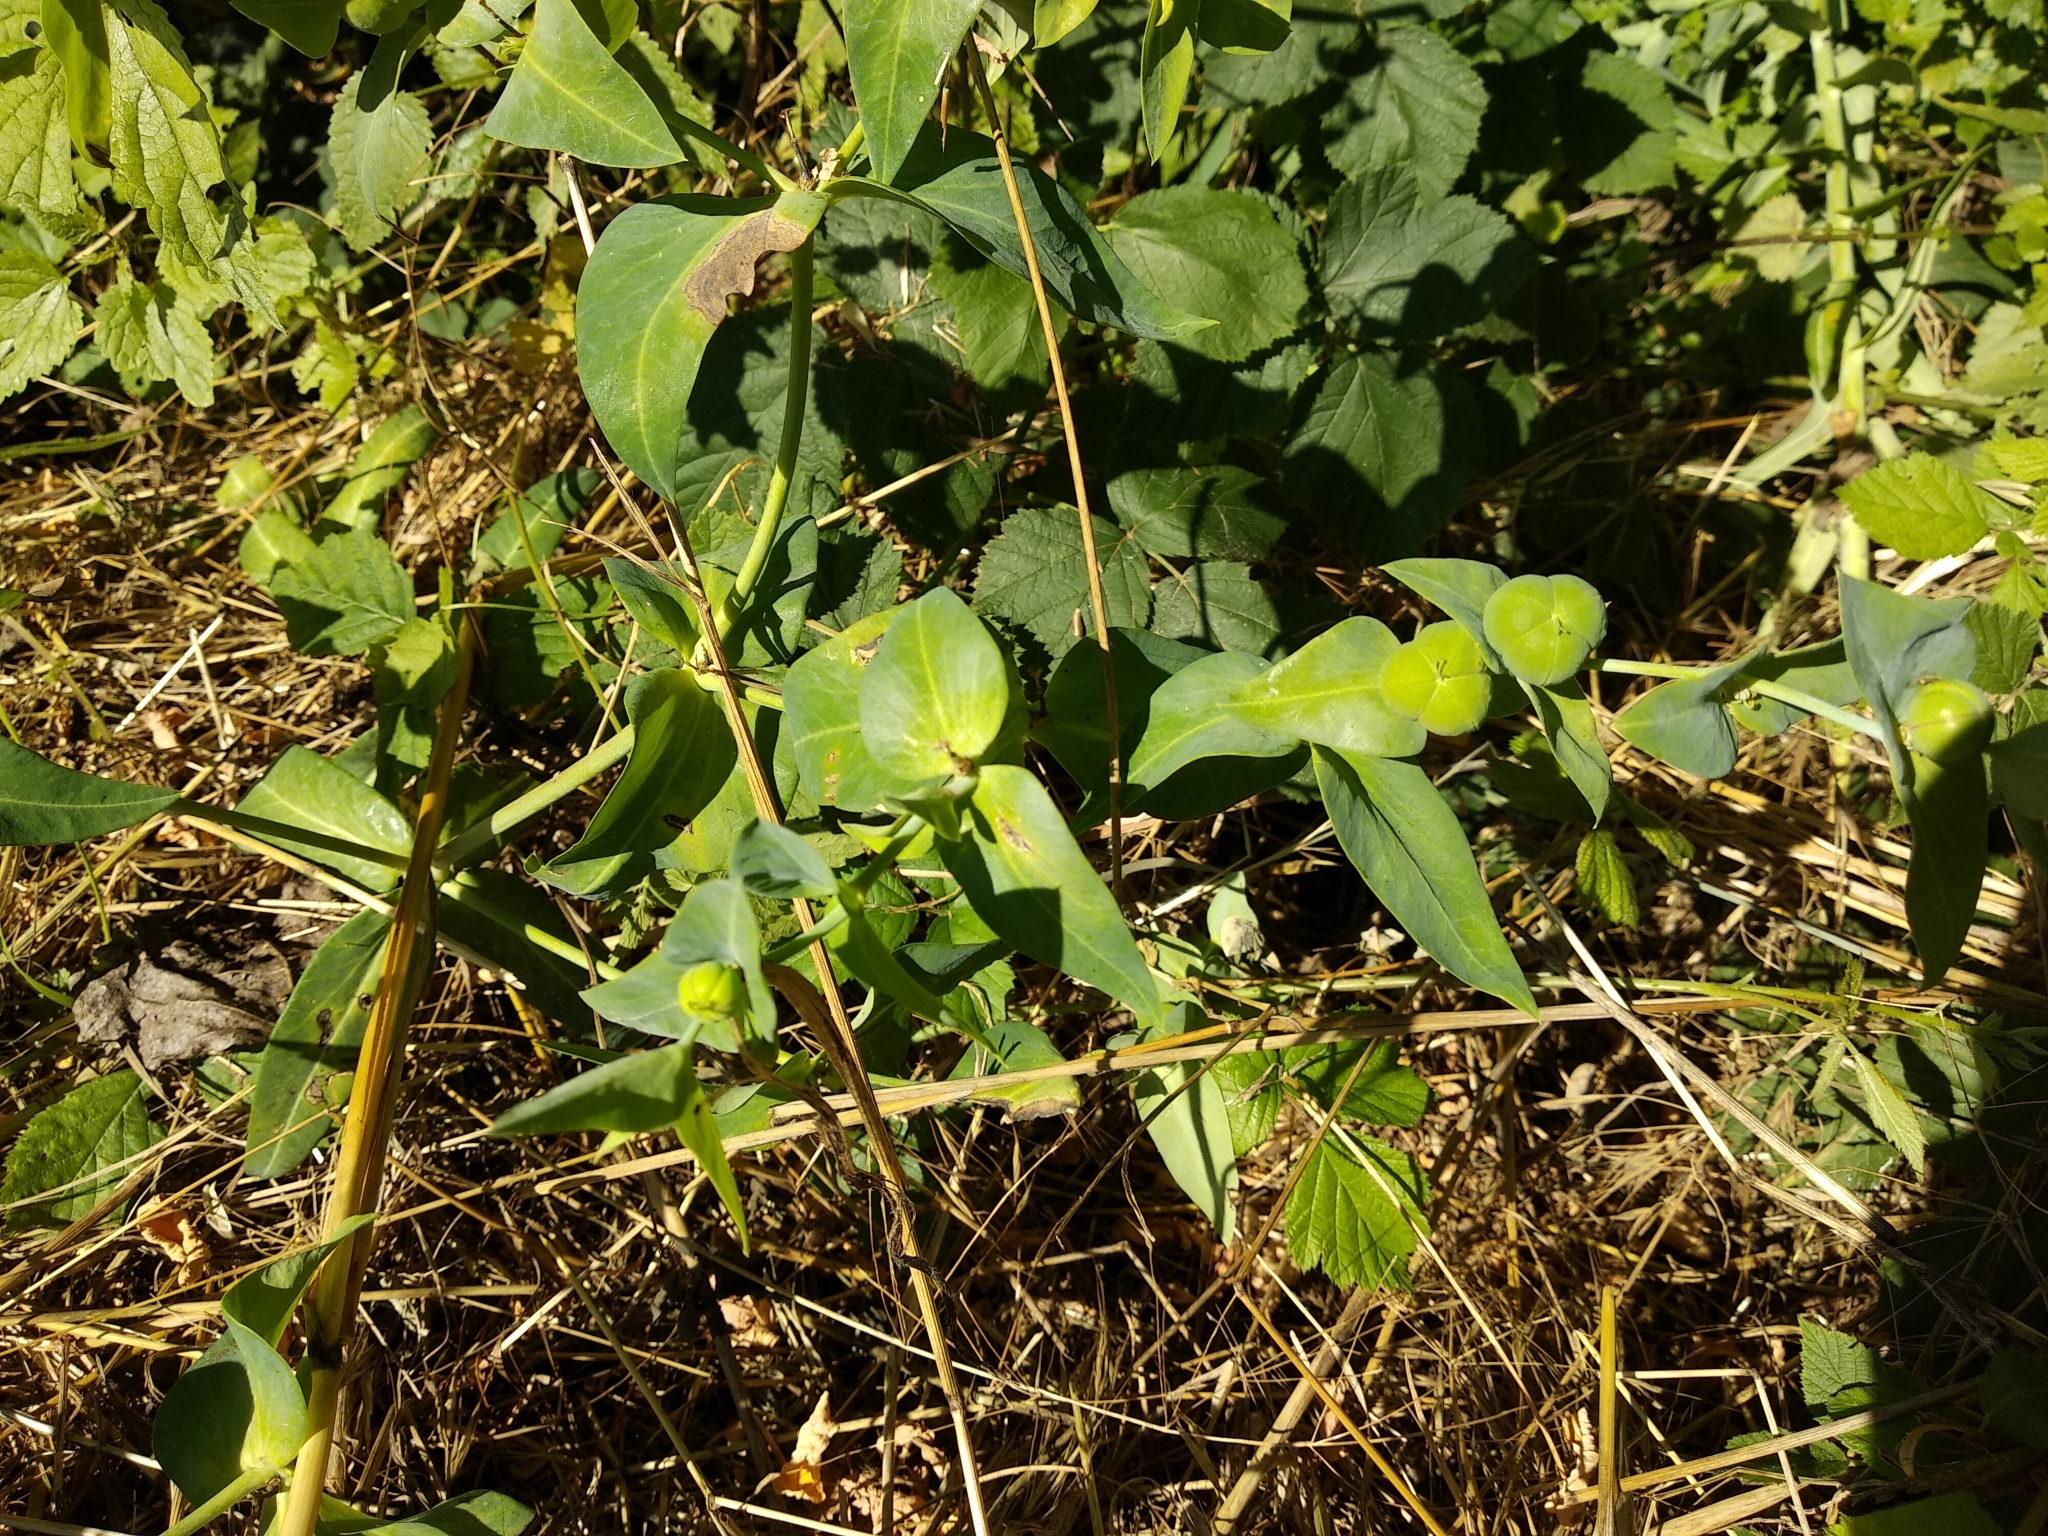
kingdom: Plantae
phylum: Tracheophyta
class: Magnoliopsida
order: Malpighiales
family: Euphorbiaceae
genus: Euphorbia
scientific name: Euphorbia lathyris
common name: Caper spurge
